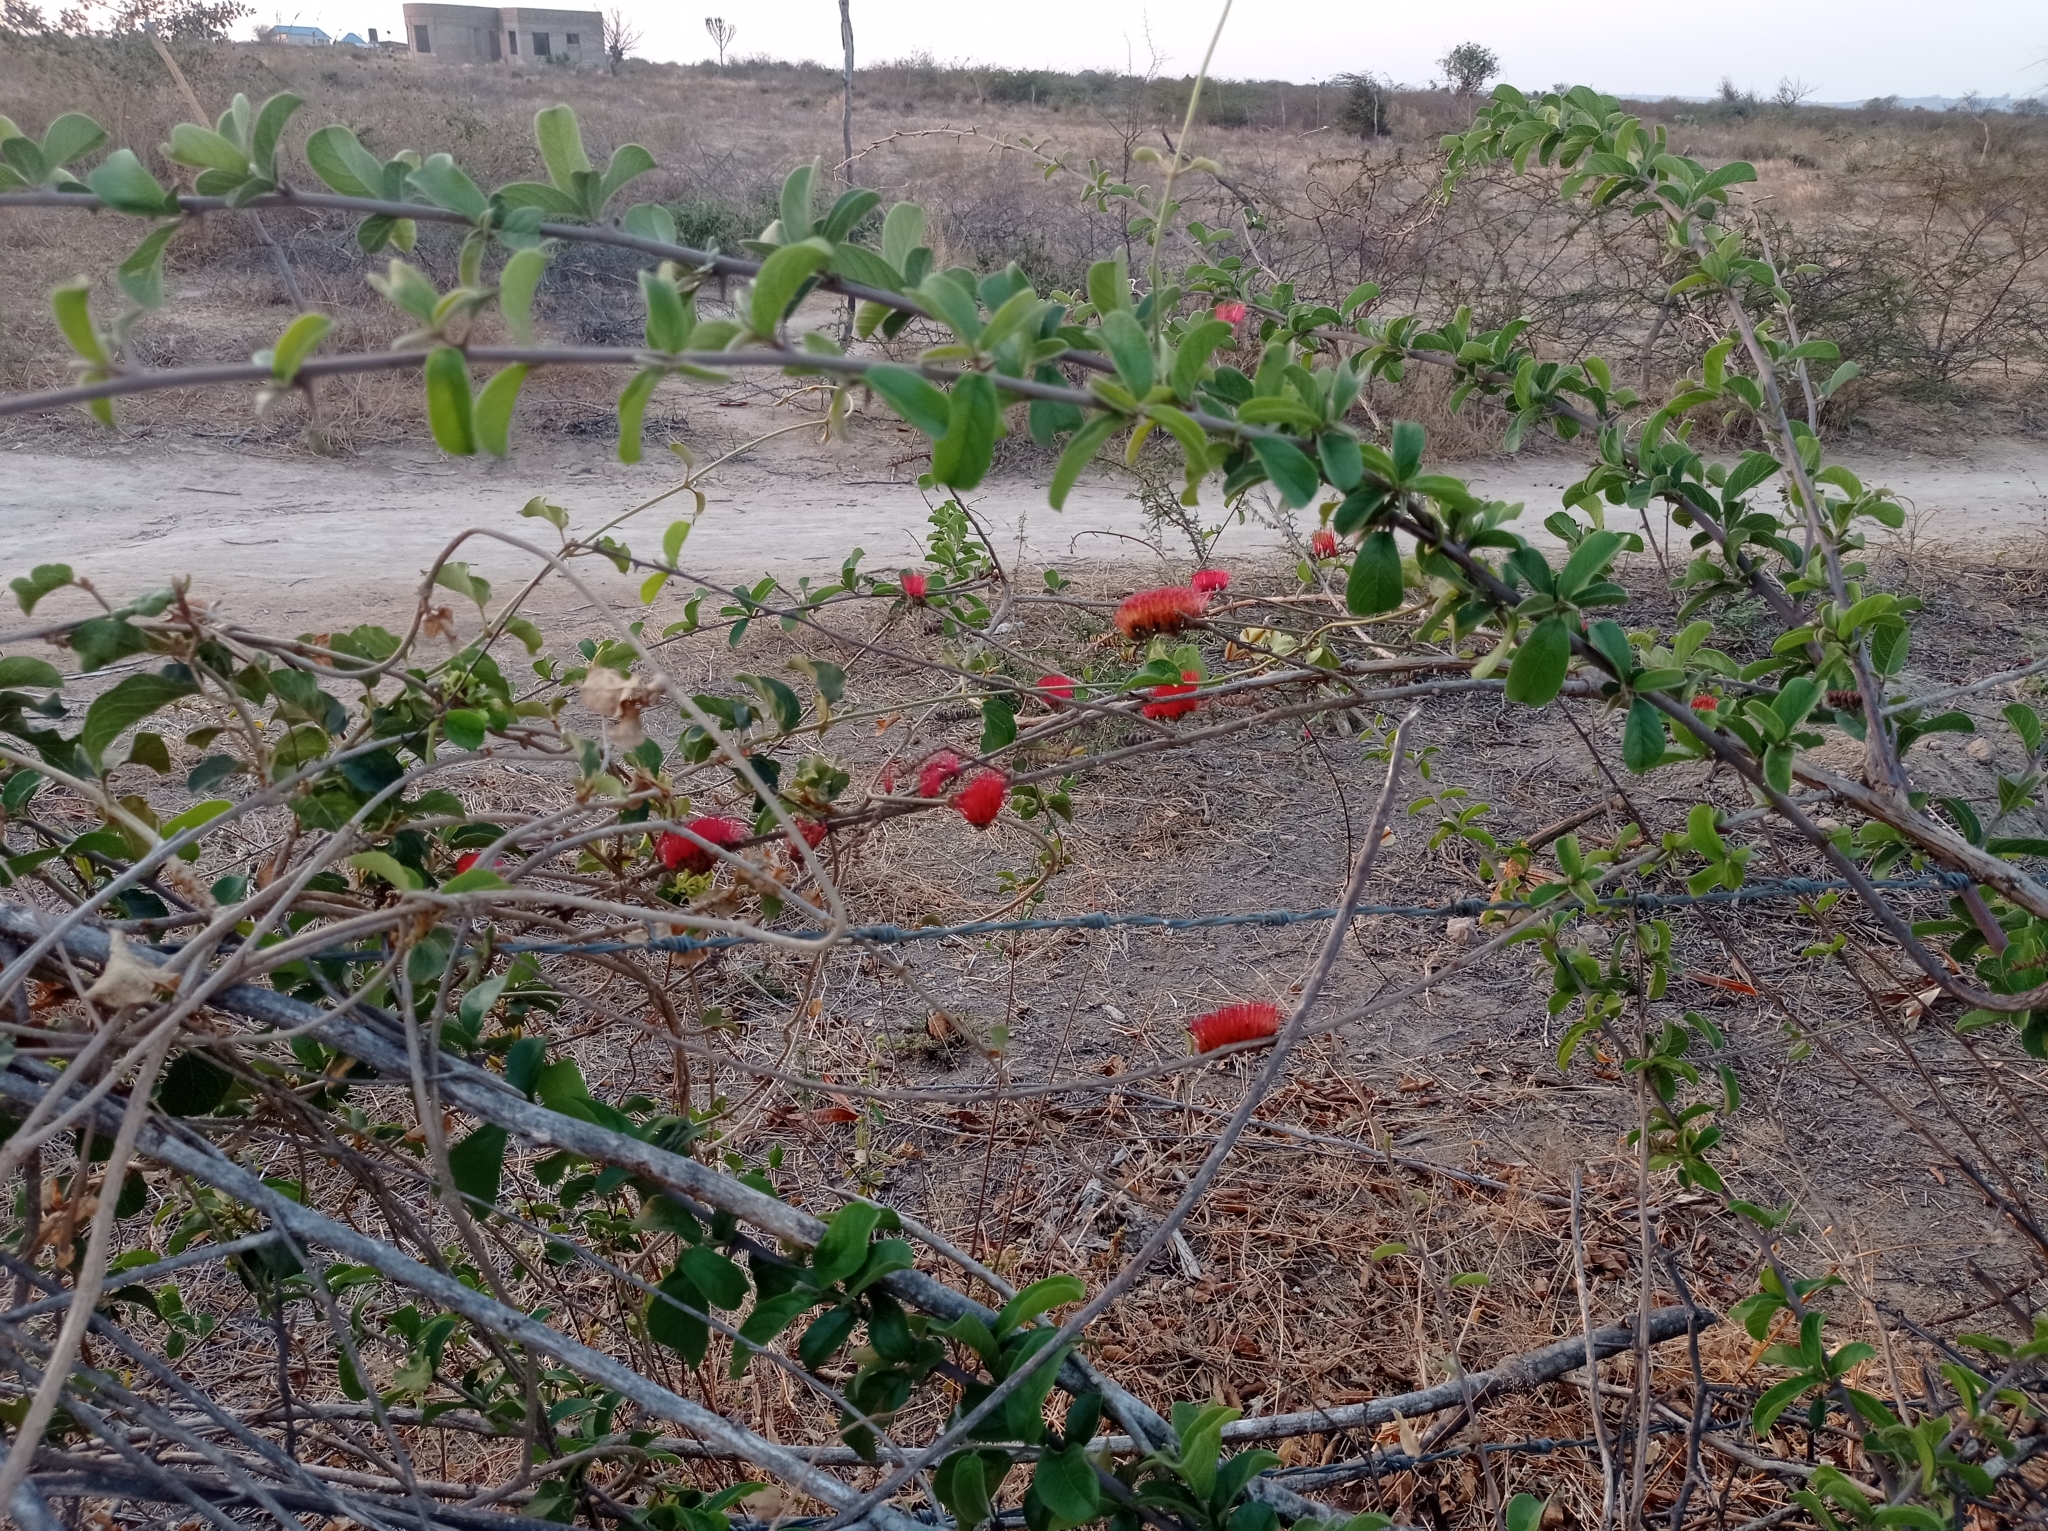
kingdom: Plantae
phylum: Tracheophyta
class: Magnoliopsida
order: Myrtales
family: Combretaceae
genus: Combretum
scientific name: Combretum purpureiflorum
